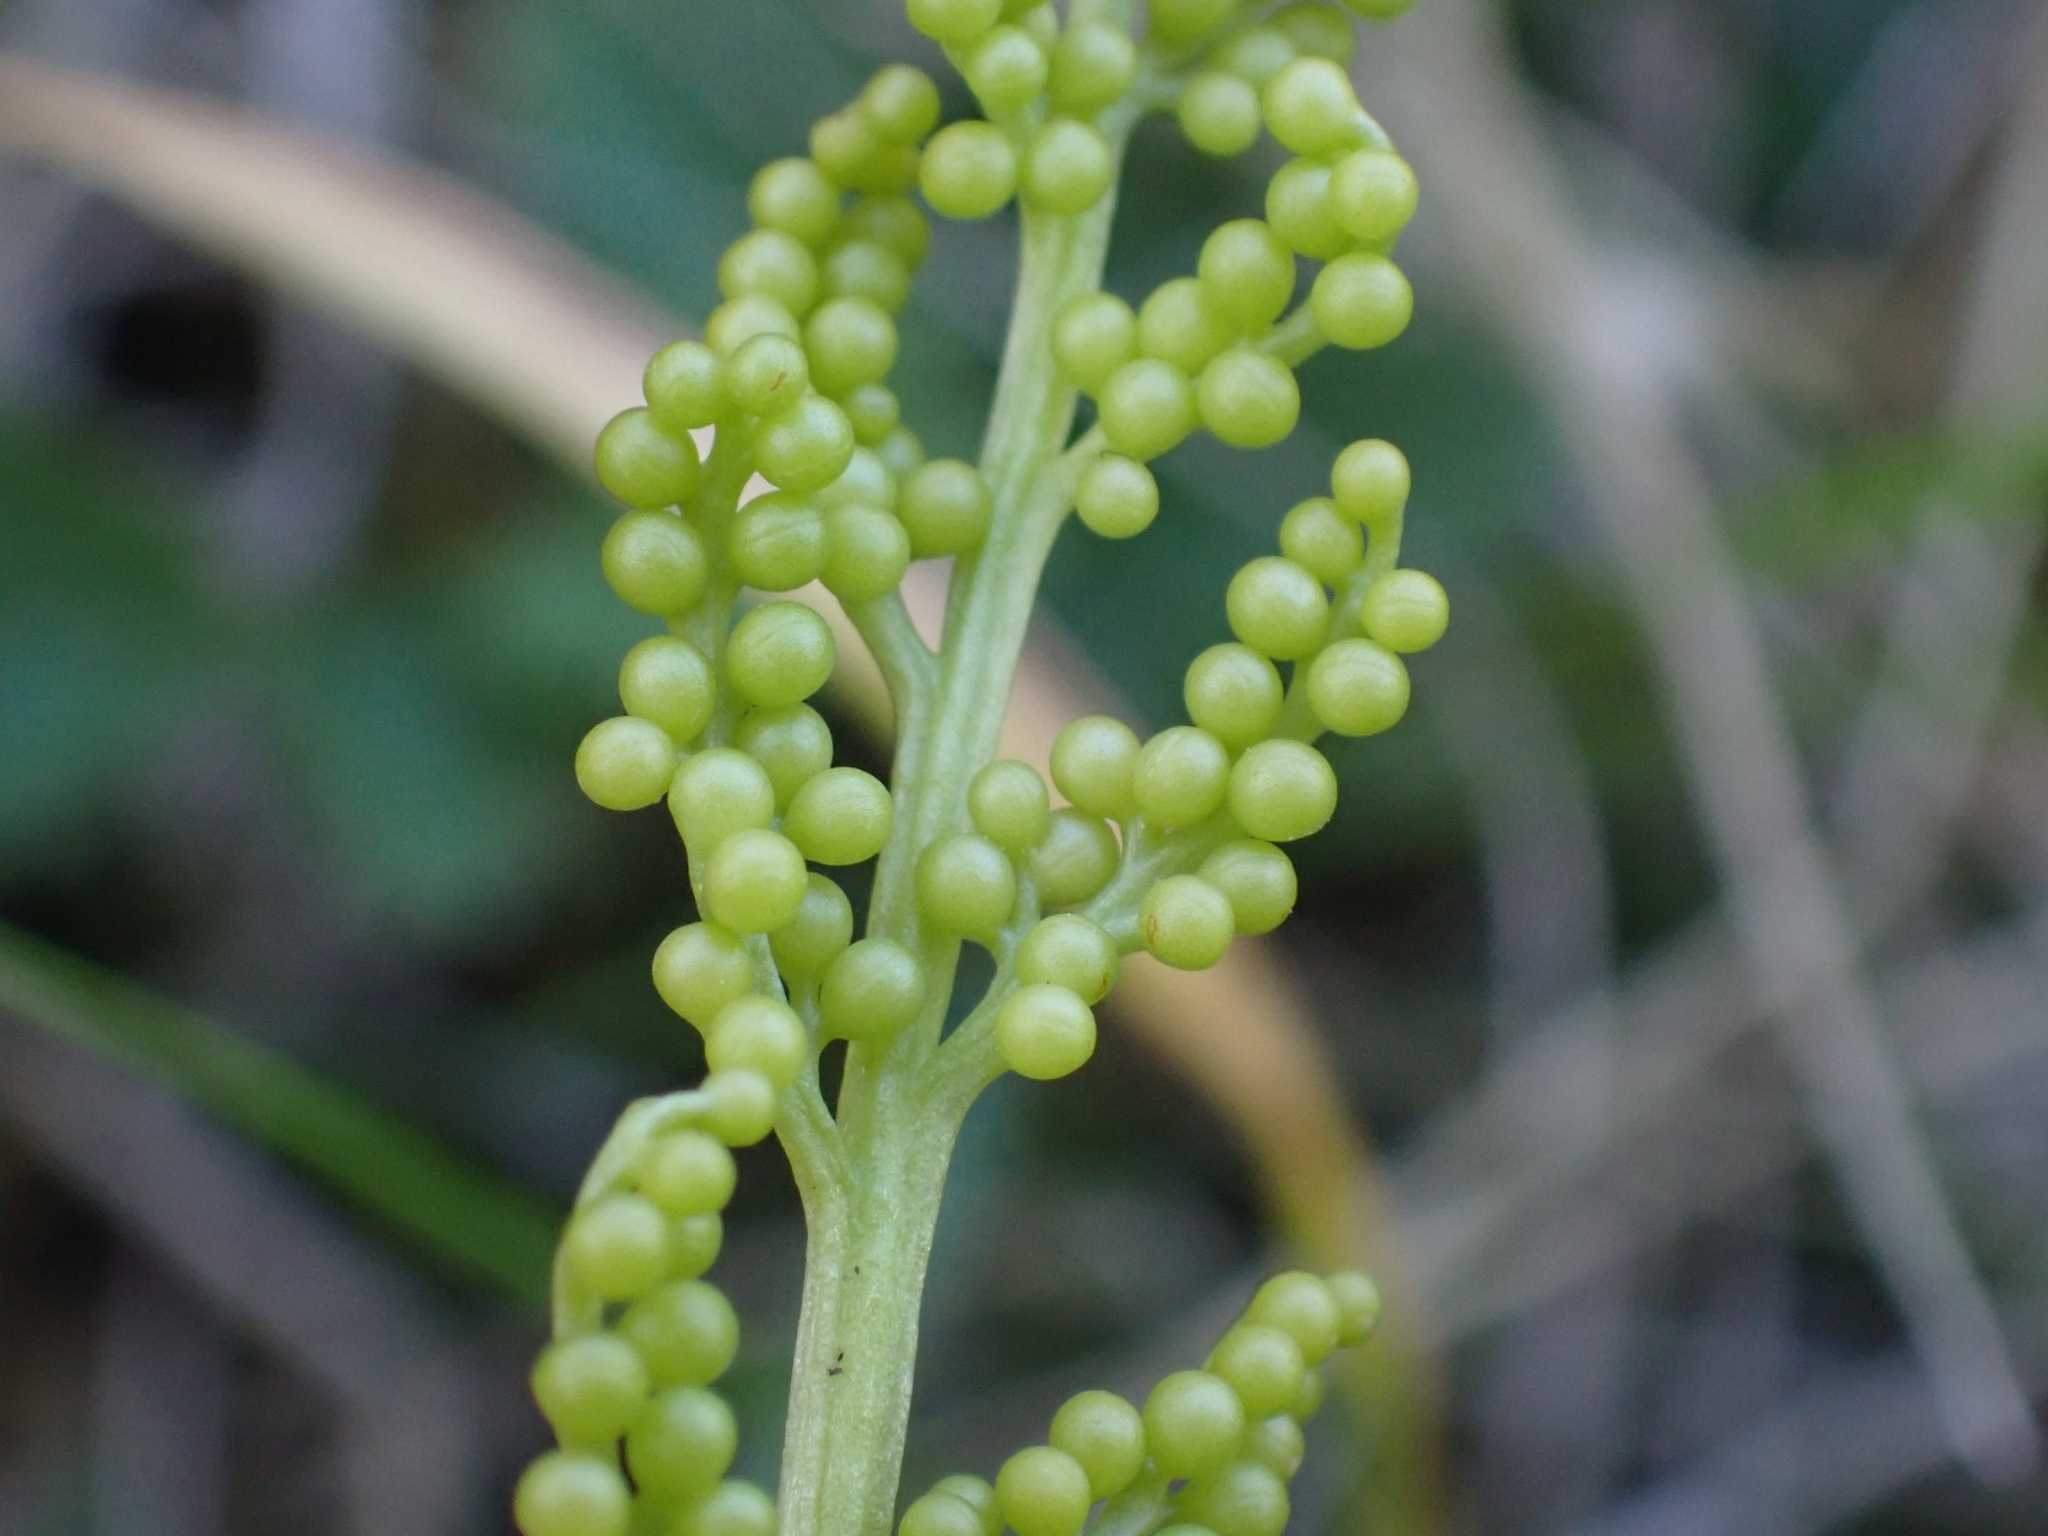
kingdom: Plantae
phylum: Tracheophyta
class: Polypodiopsida
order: Ophioglossales
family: Ophioglossaceae
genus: Botrypus
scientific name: Botrypus virginianus
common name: Common grapefern
